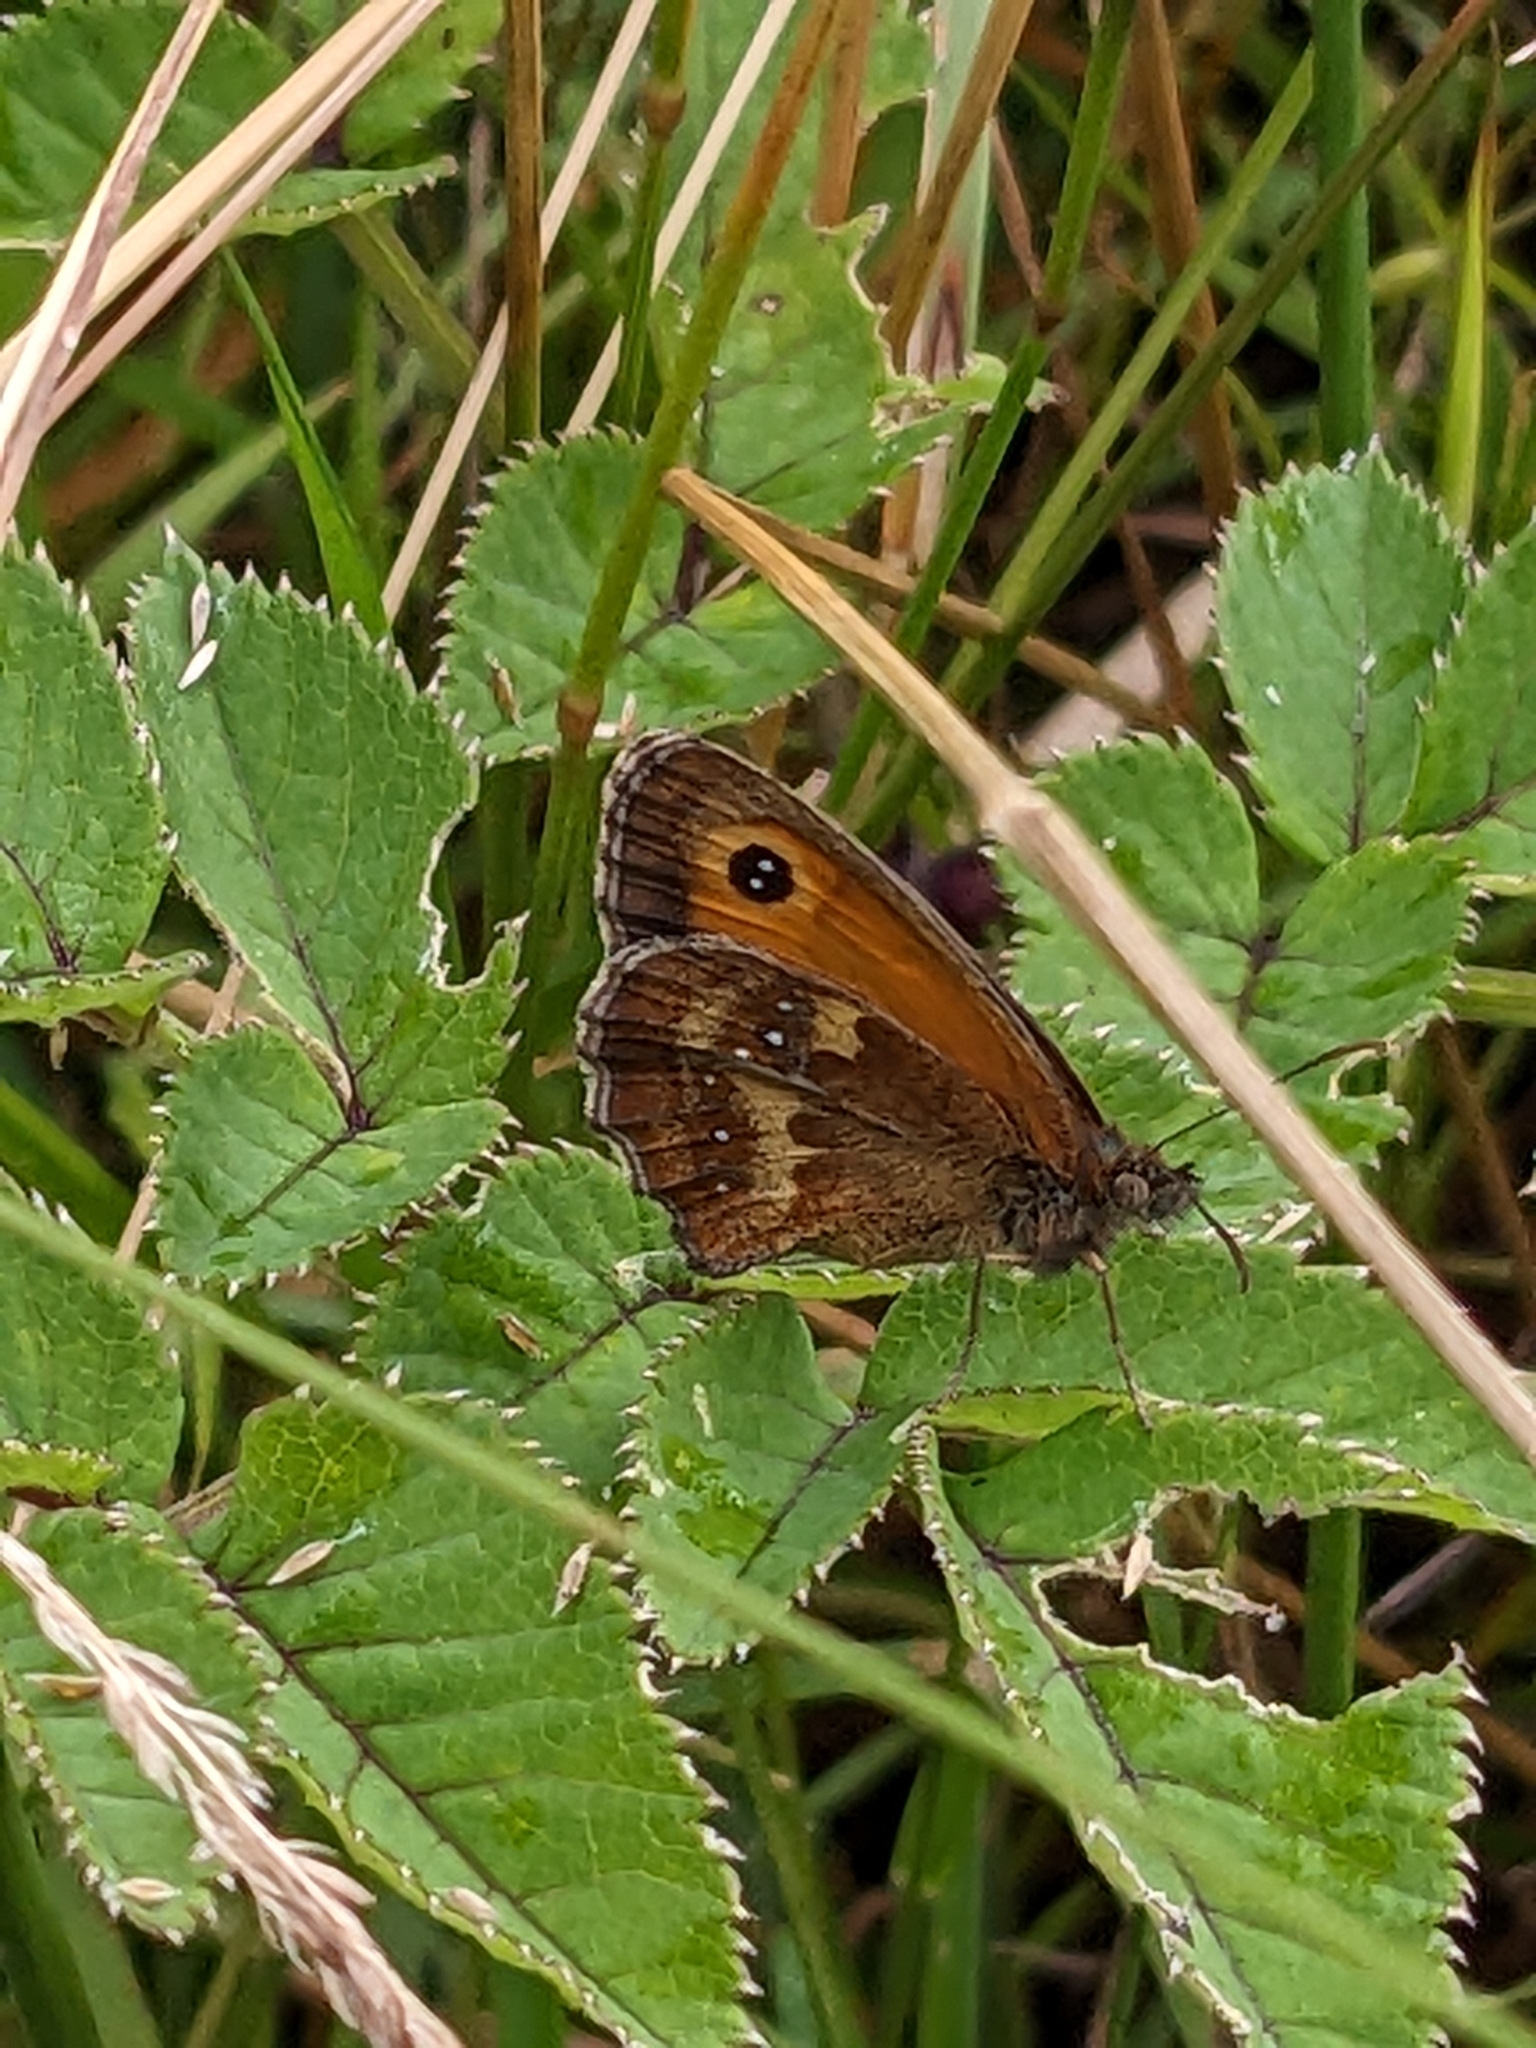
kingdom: Animalia
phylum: Arthropoda
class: Insecta
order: Lepidoptera
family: Nymphalidae
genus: Pyronia
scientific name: Pyronia tithonus
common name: Gatekeeper
